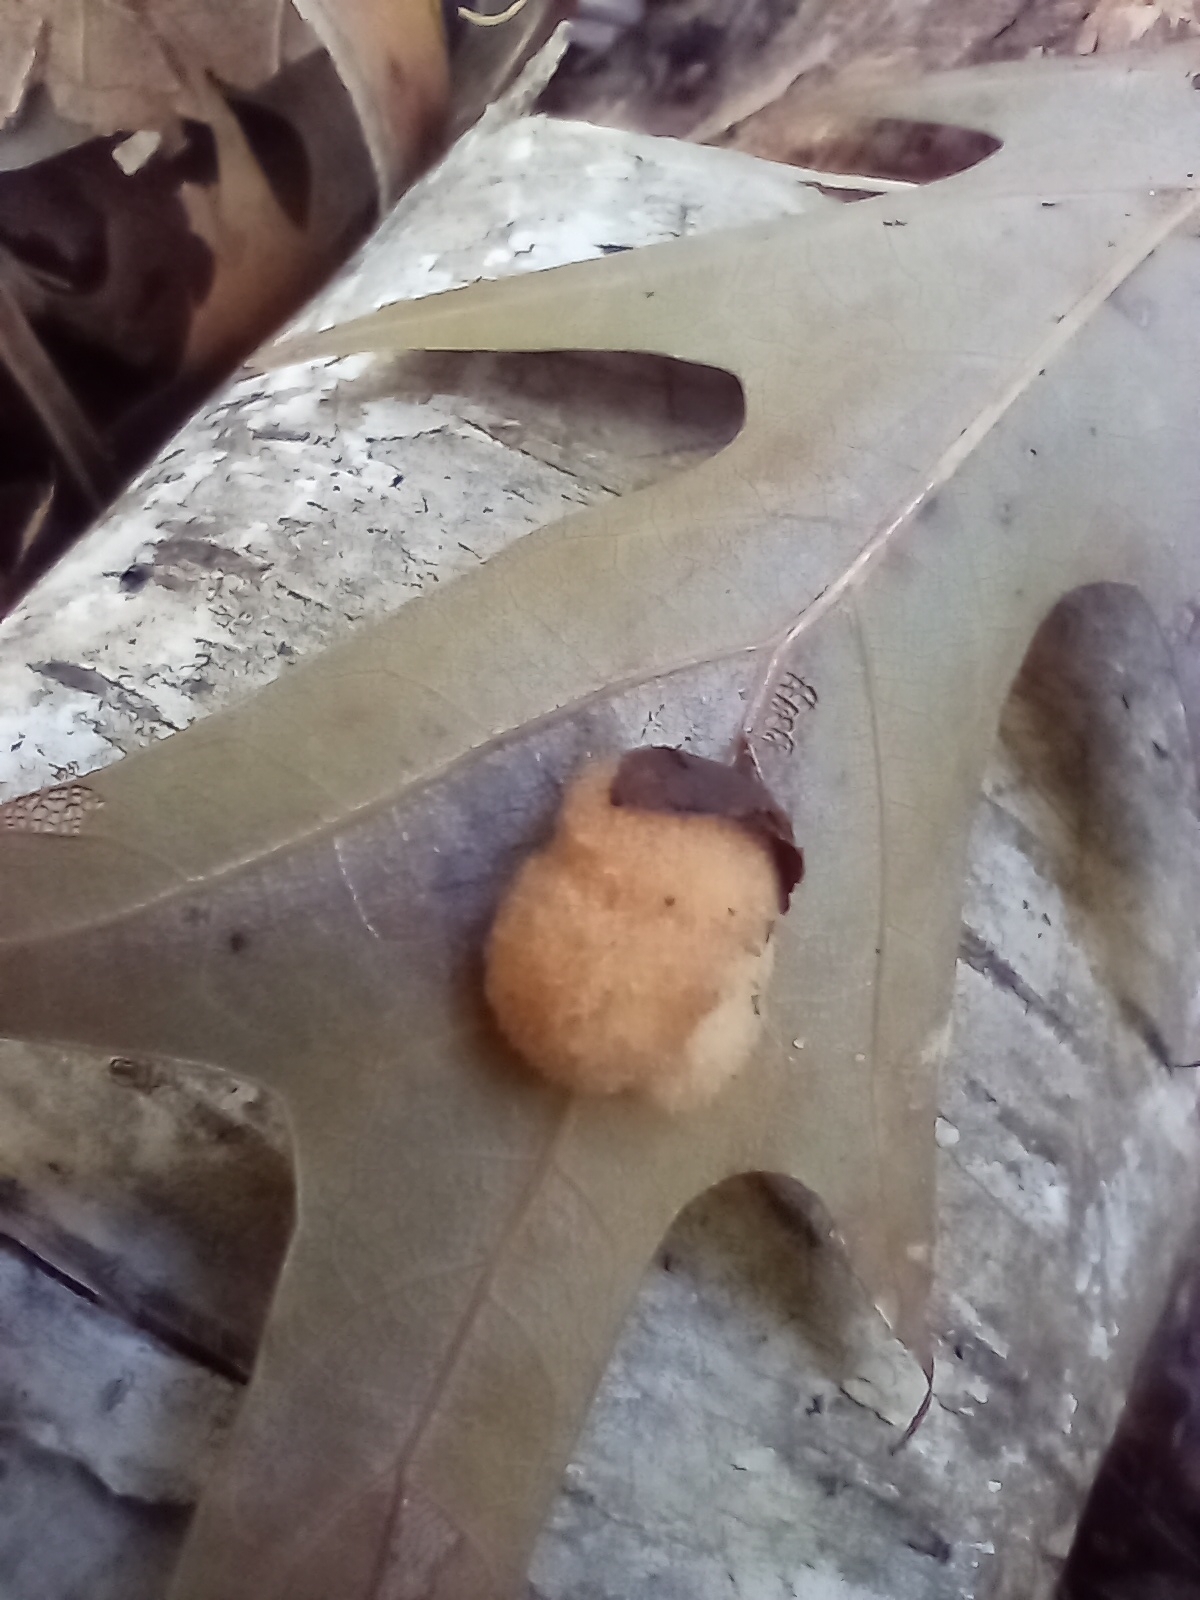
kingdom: Animalia
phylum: Arthropoda
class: Insecta
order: Hymenoptera
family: Cynipidae
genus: Callirhytis
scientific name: Callirhytis
